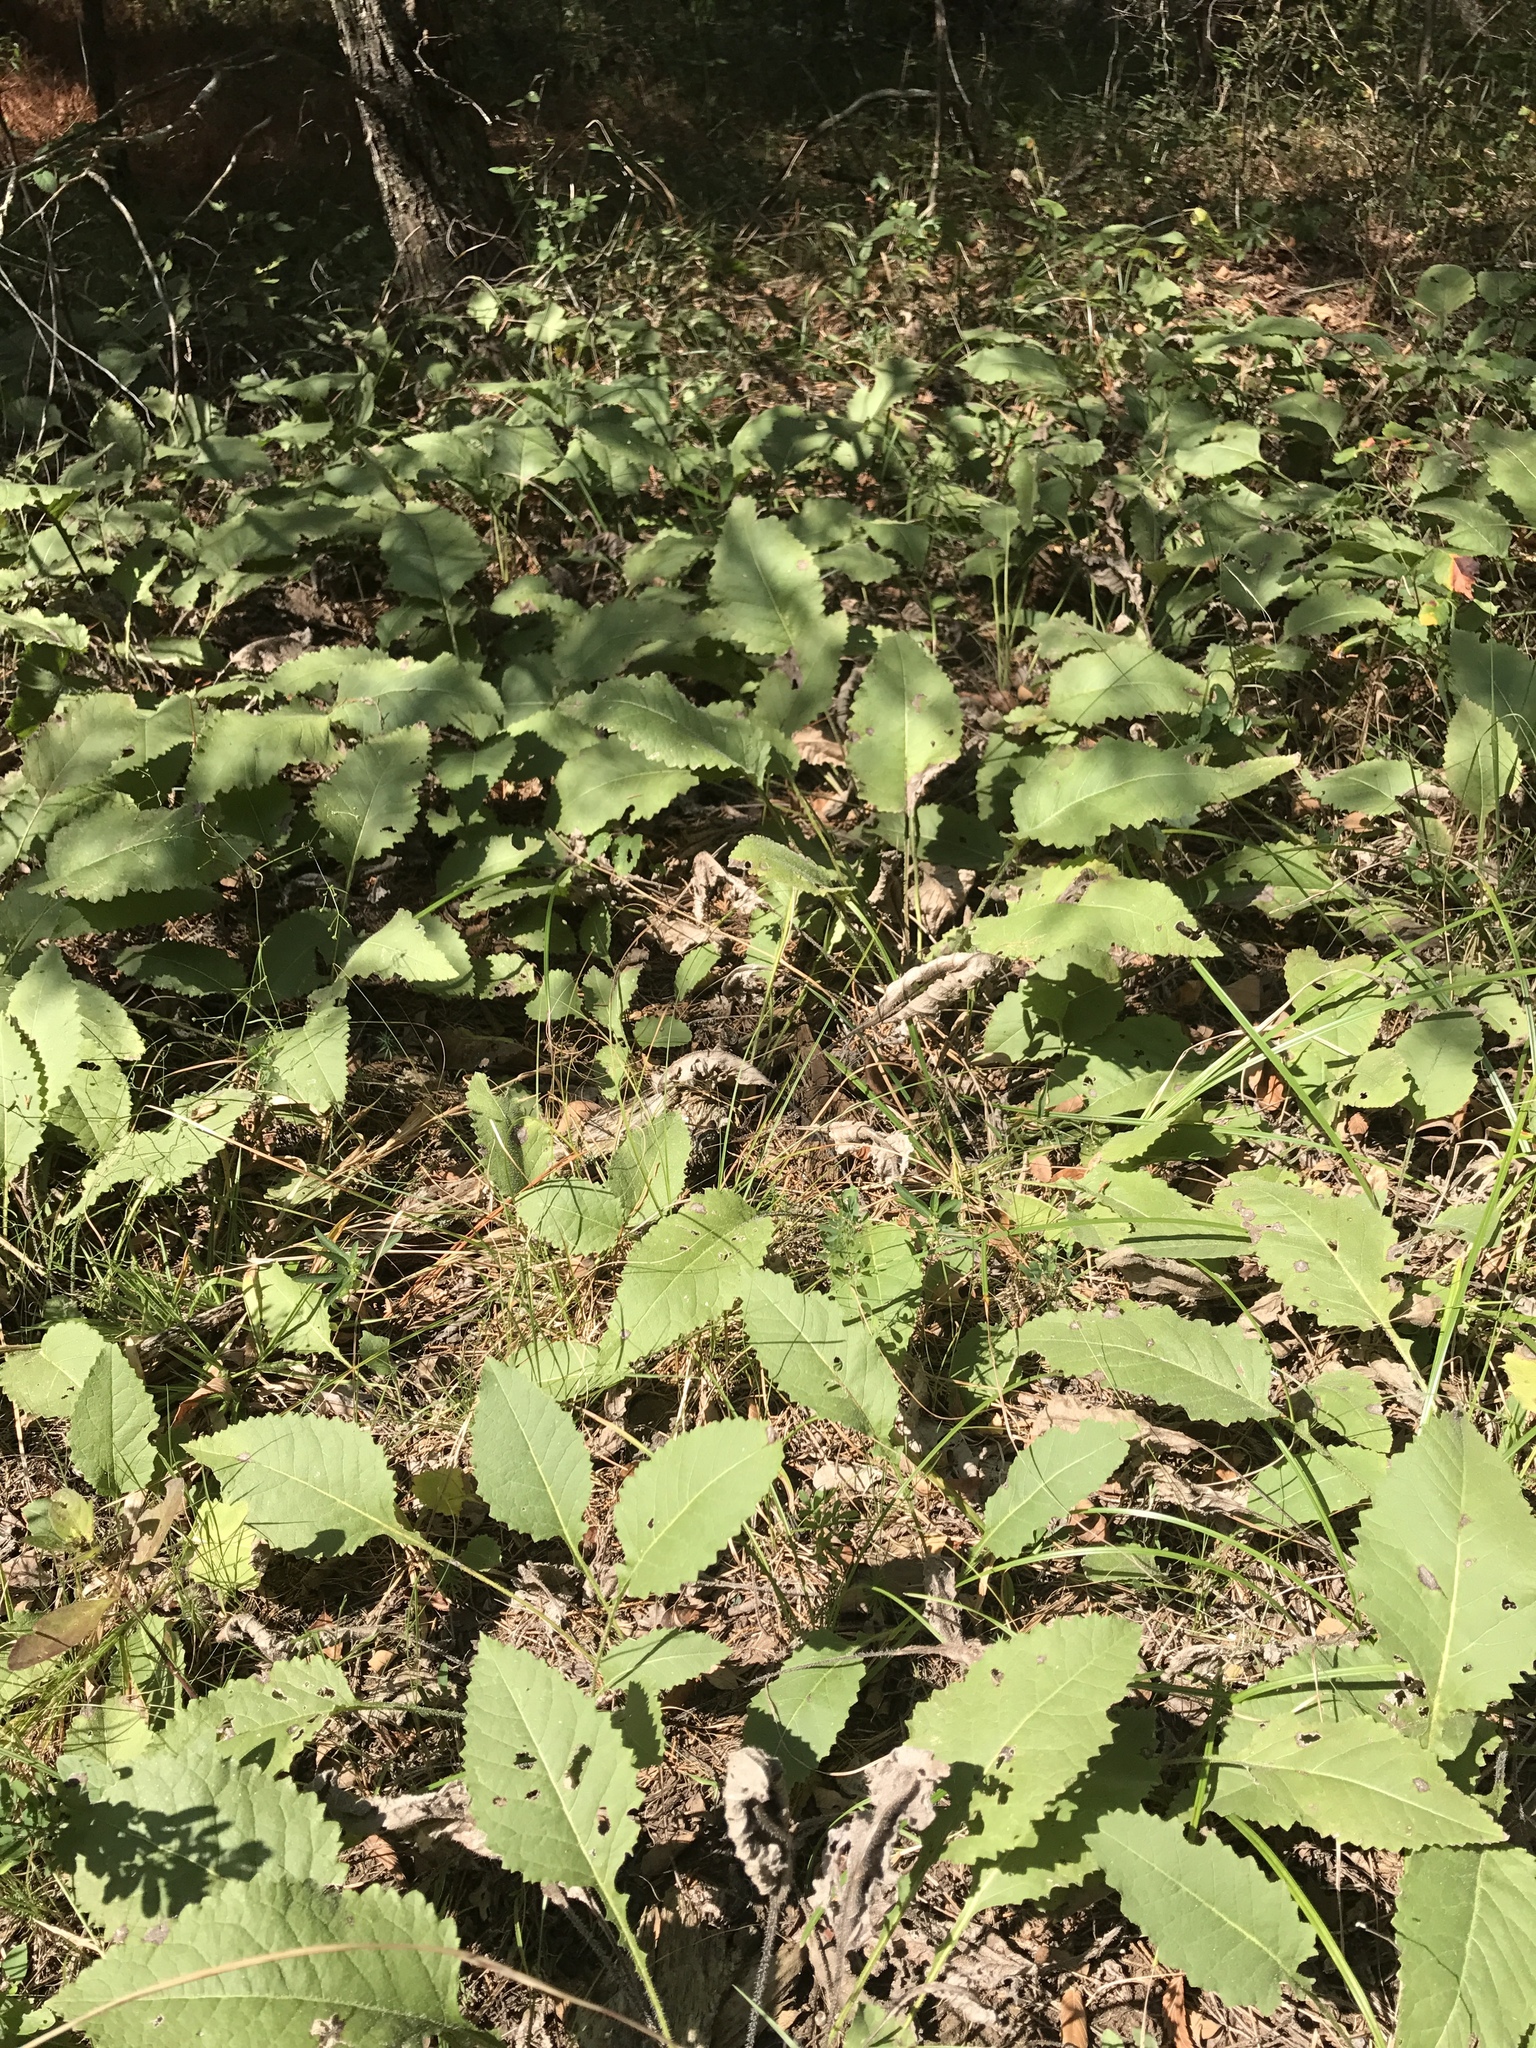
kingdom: Plantae
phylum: Tracheophyta
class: Magnoliopsida
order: Asterales
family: Asteraceae
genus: Parthenium
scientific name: Parthenium auriculatum
